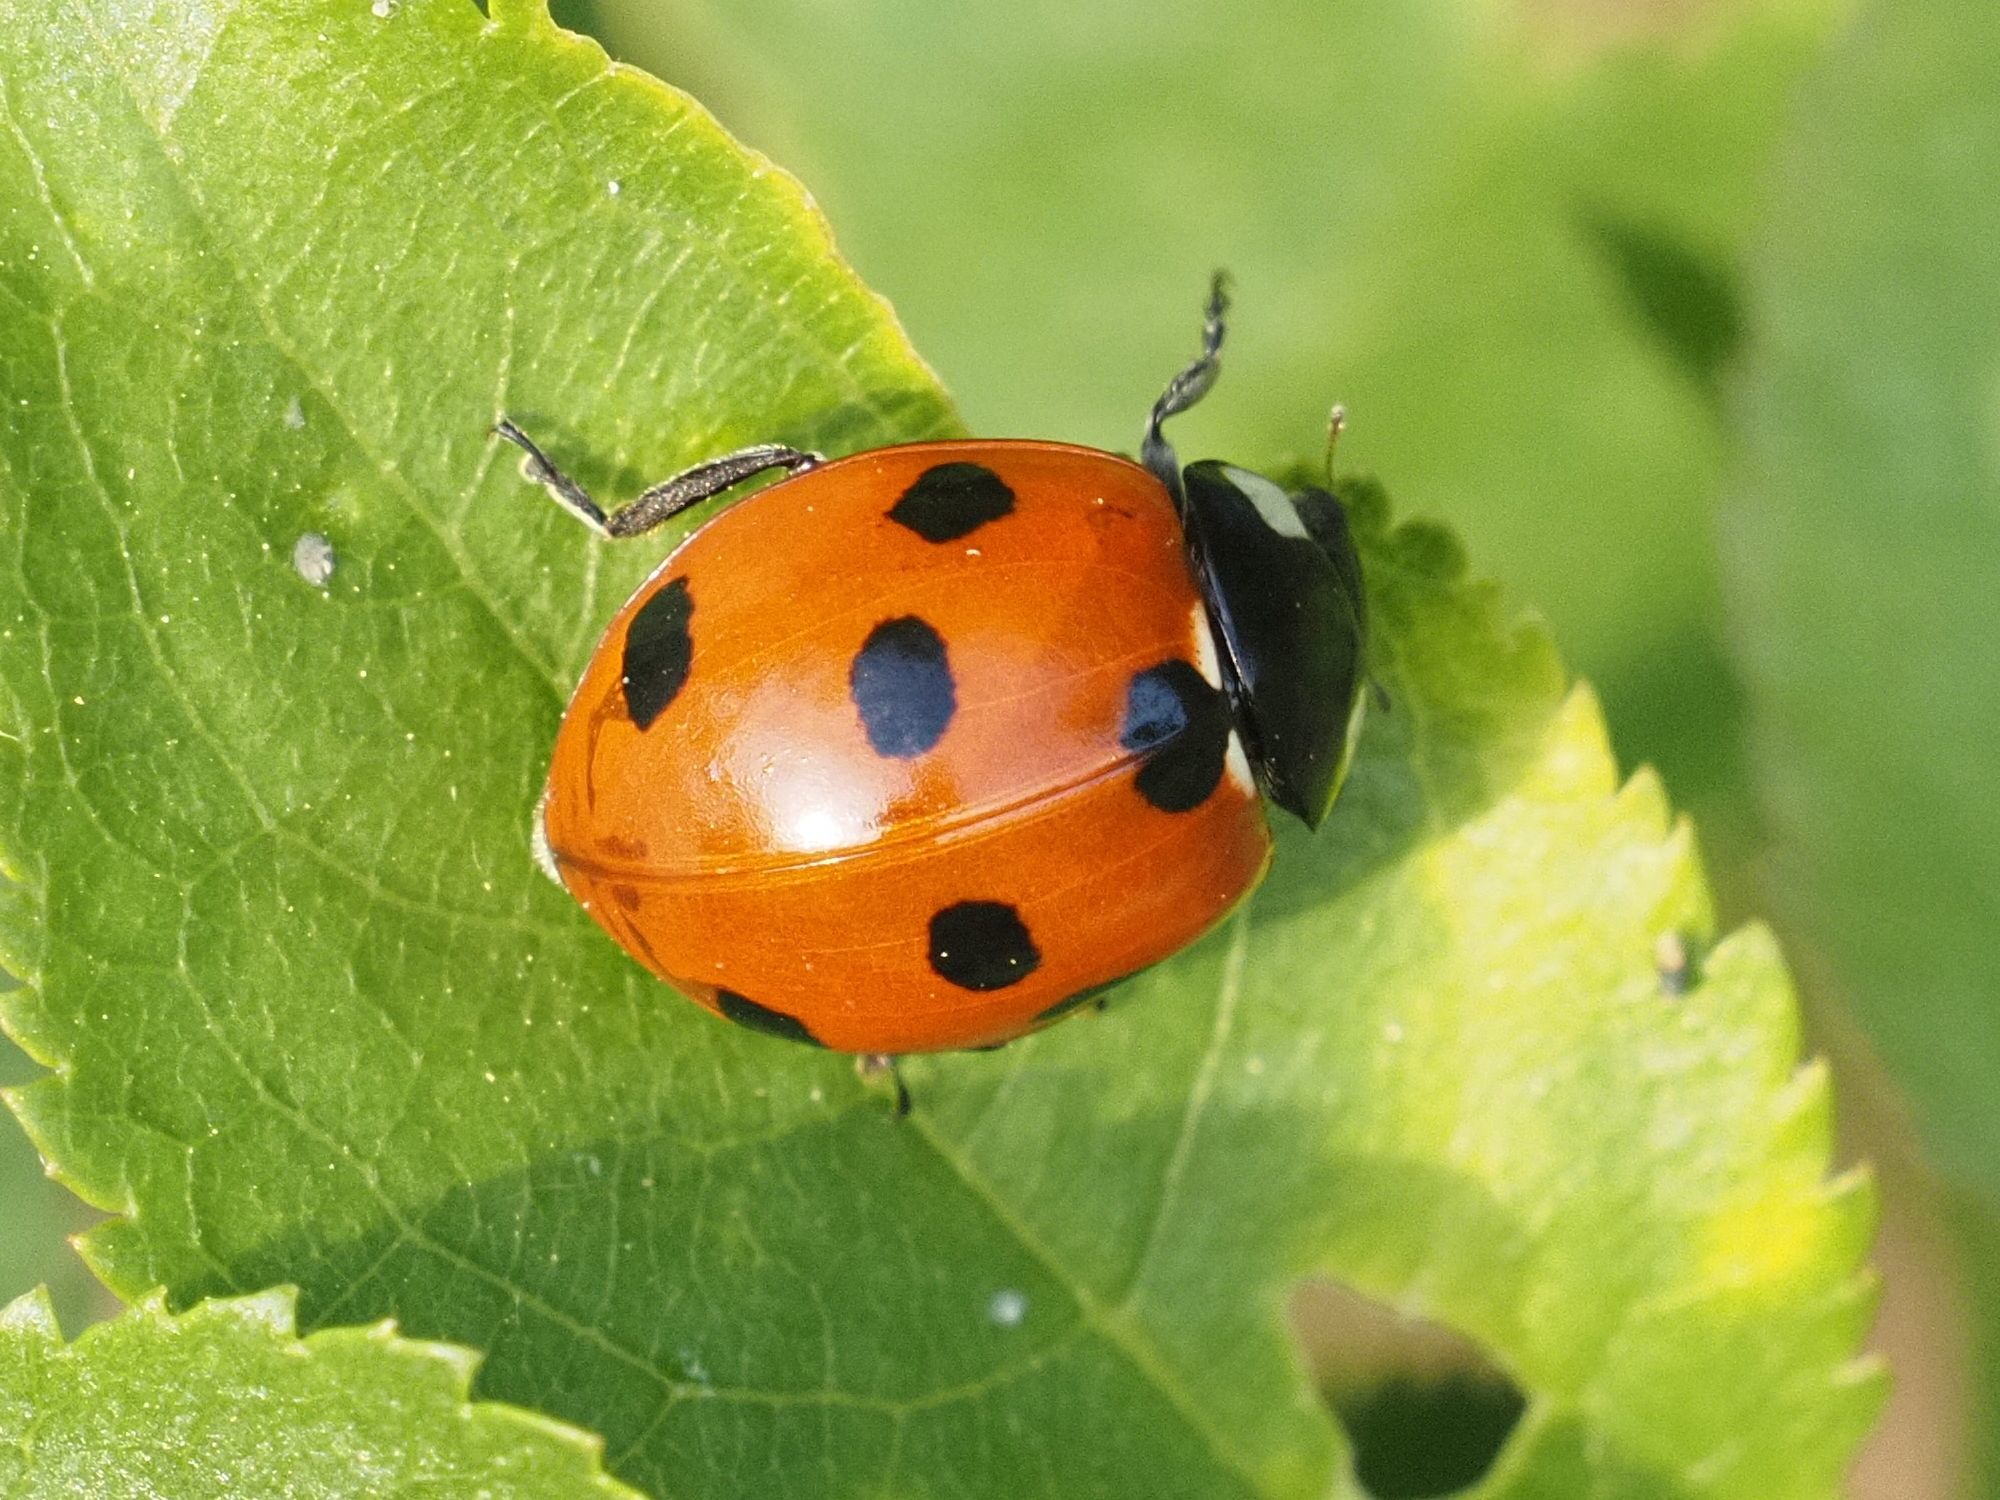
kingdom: Animalia
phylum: Arthropoda
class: Insecta
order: Coleoptera
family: Coccinellidae
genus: Coccinella
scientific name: Coccinella septempunctata
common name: Sevenspotted lady beetle
